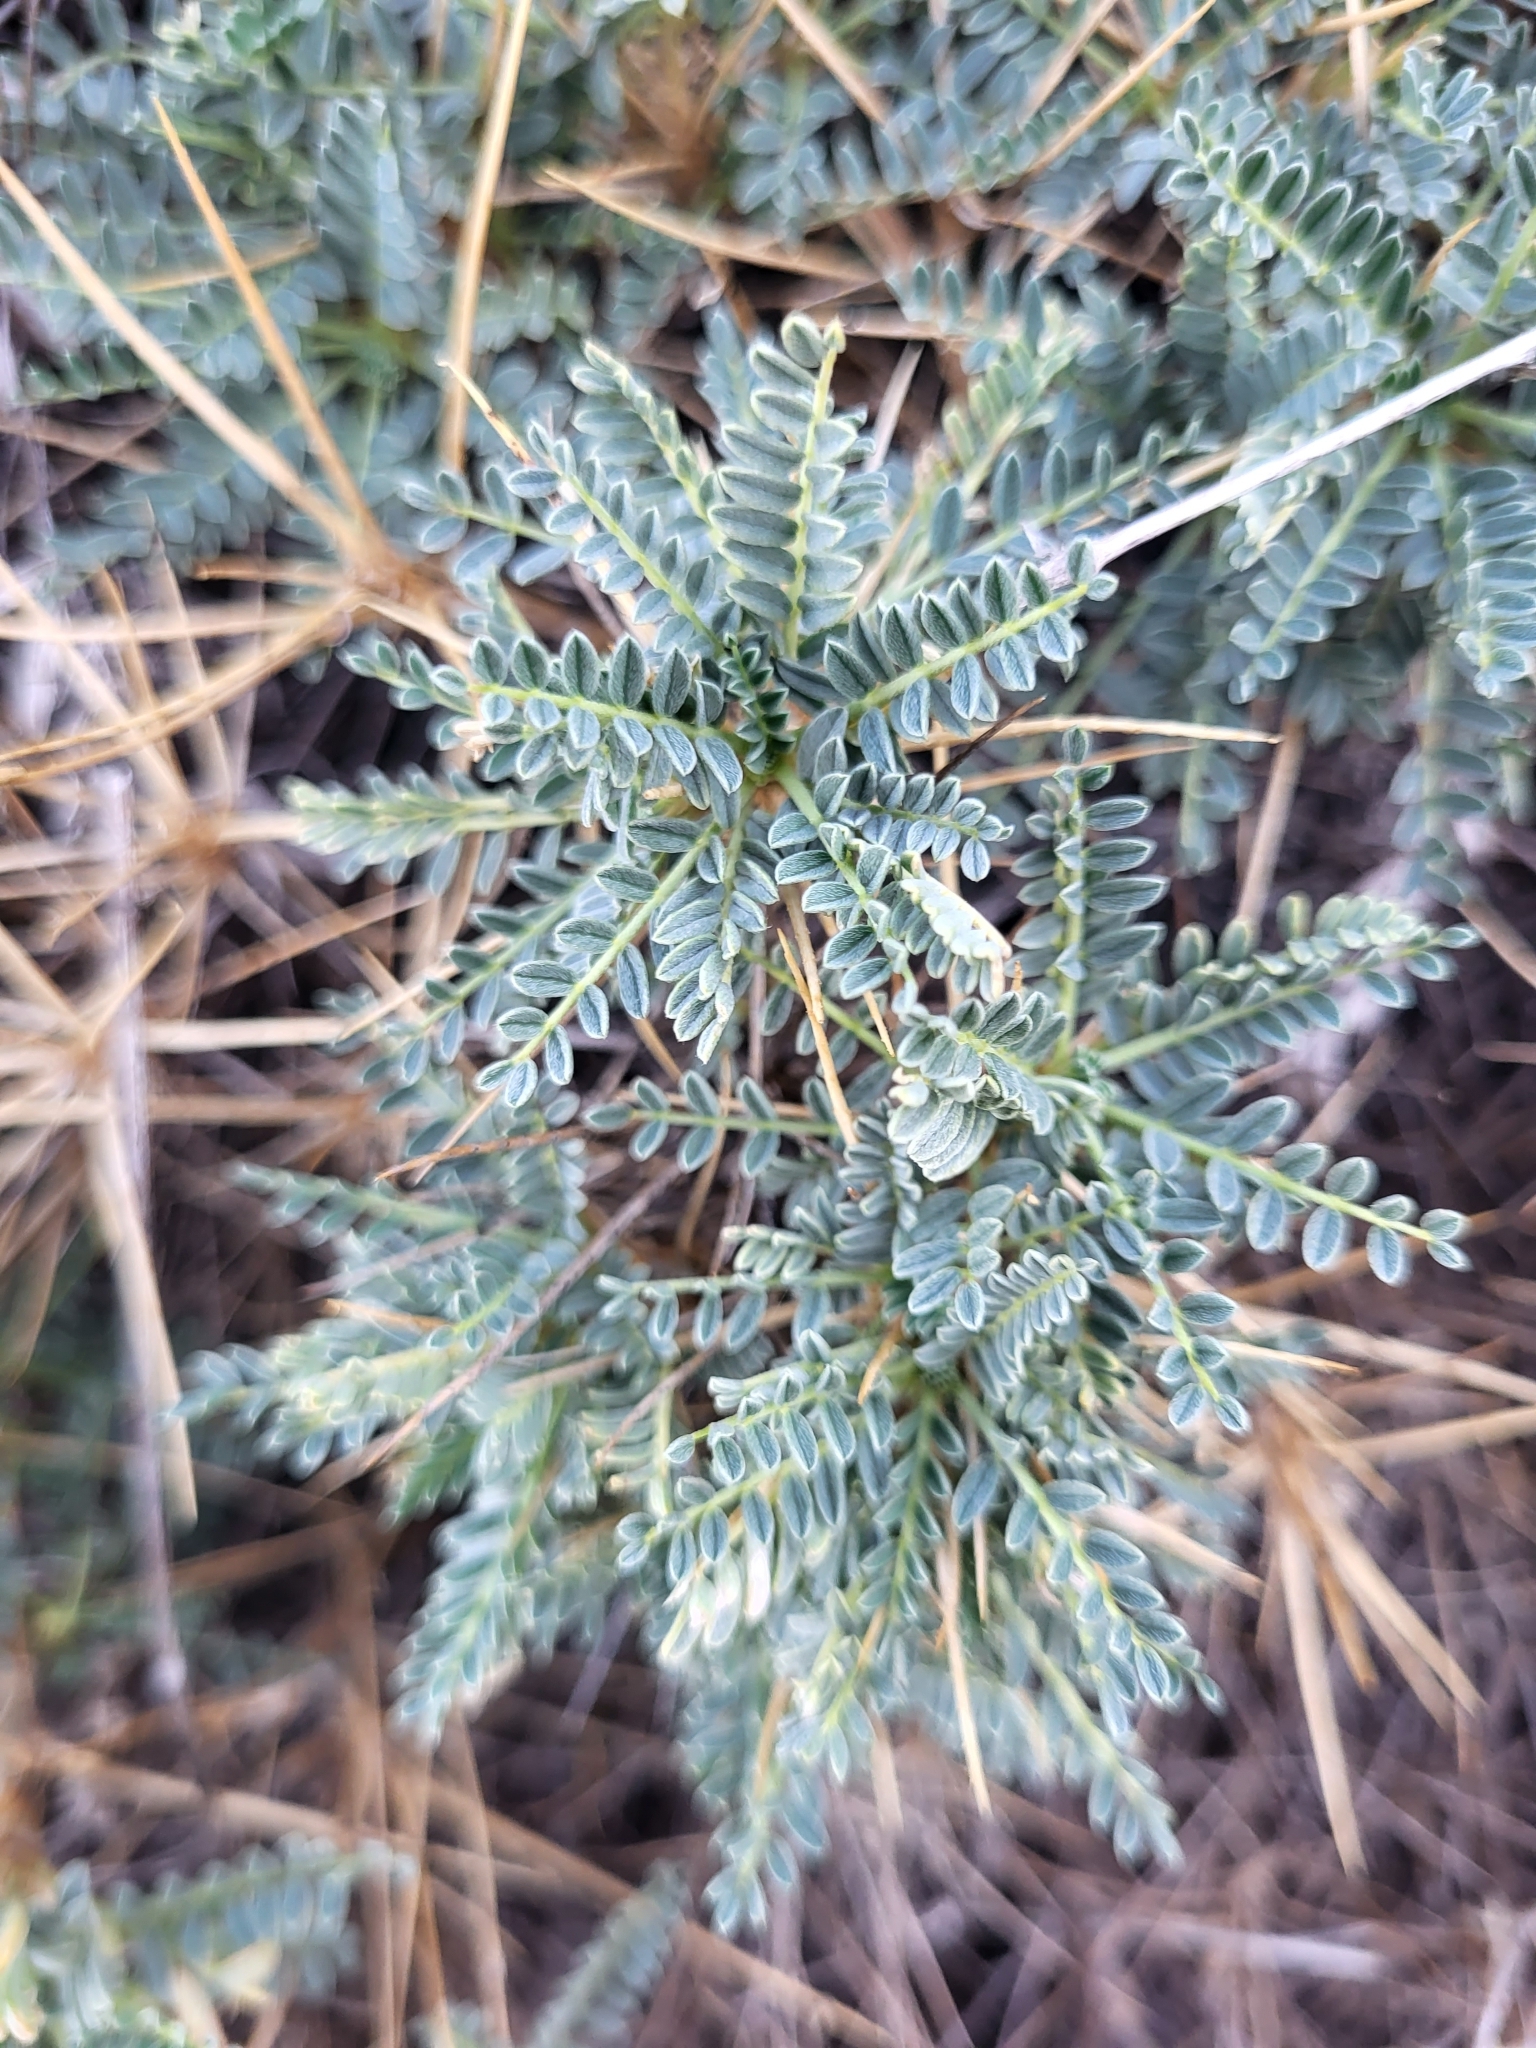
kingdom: Plantae
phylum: Tracheophyta
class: Magnoliopsida
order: Fabales
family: Fabaceae
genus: Astragalus
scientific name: Astragalus croaticus
